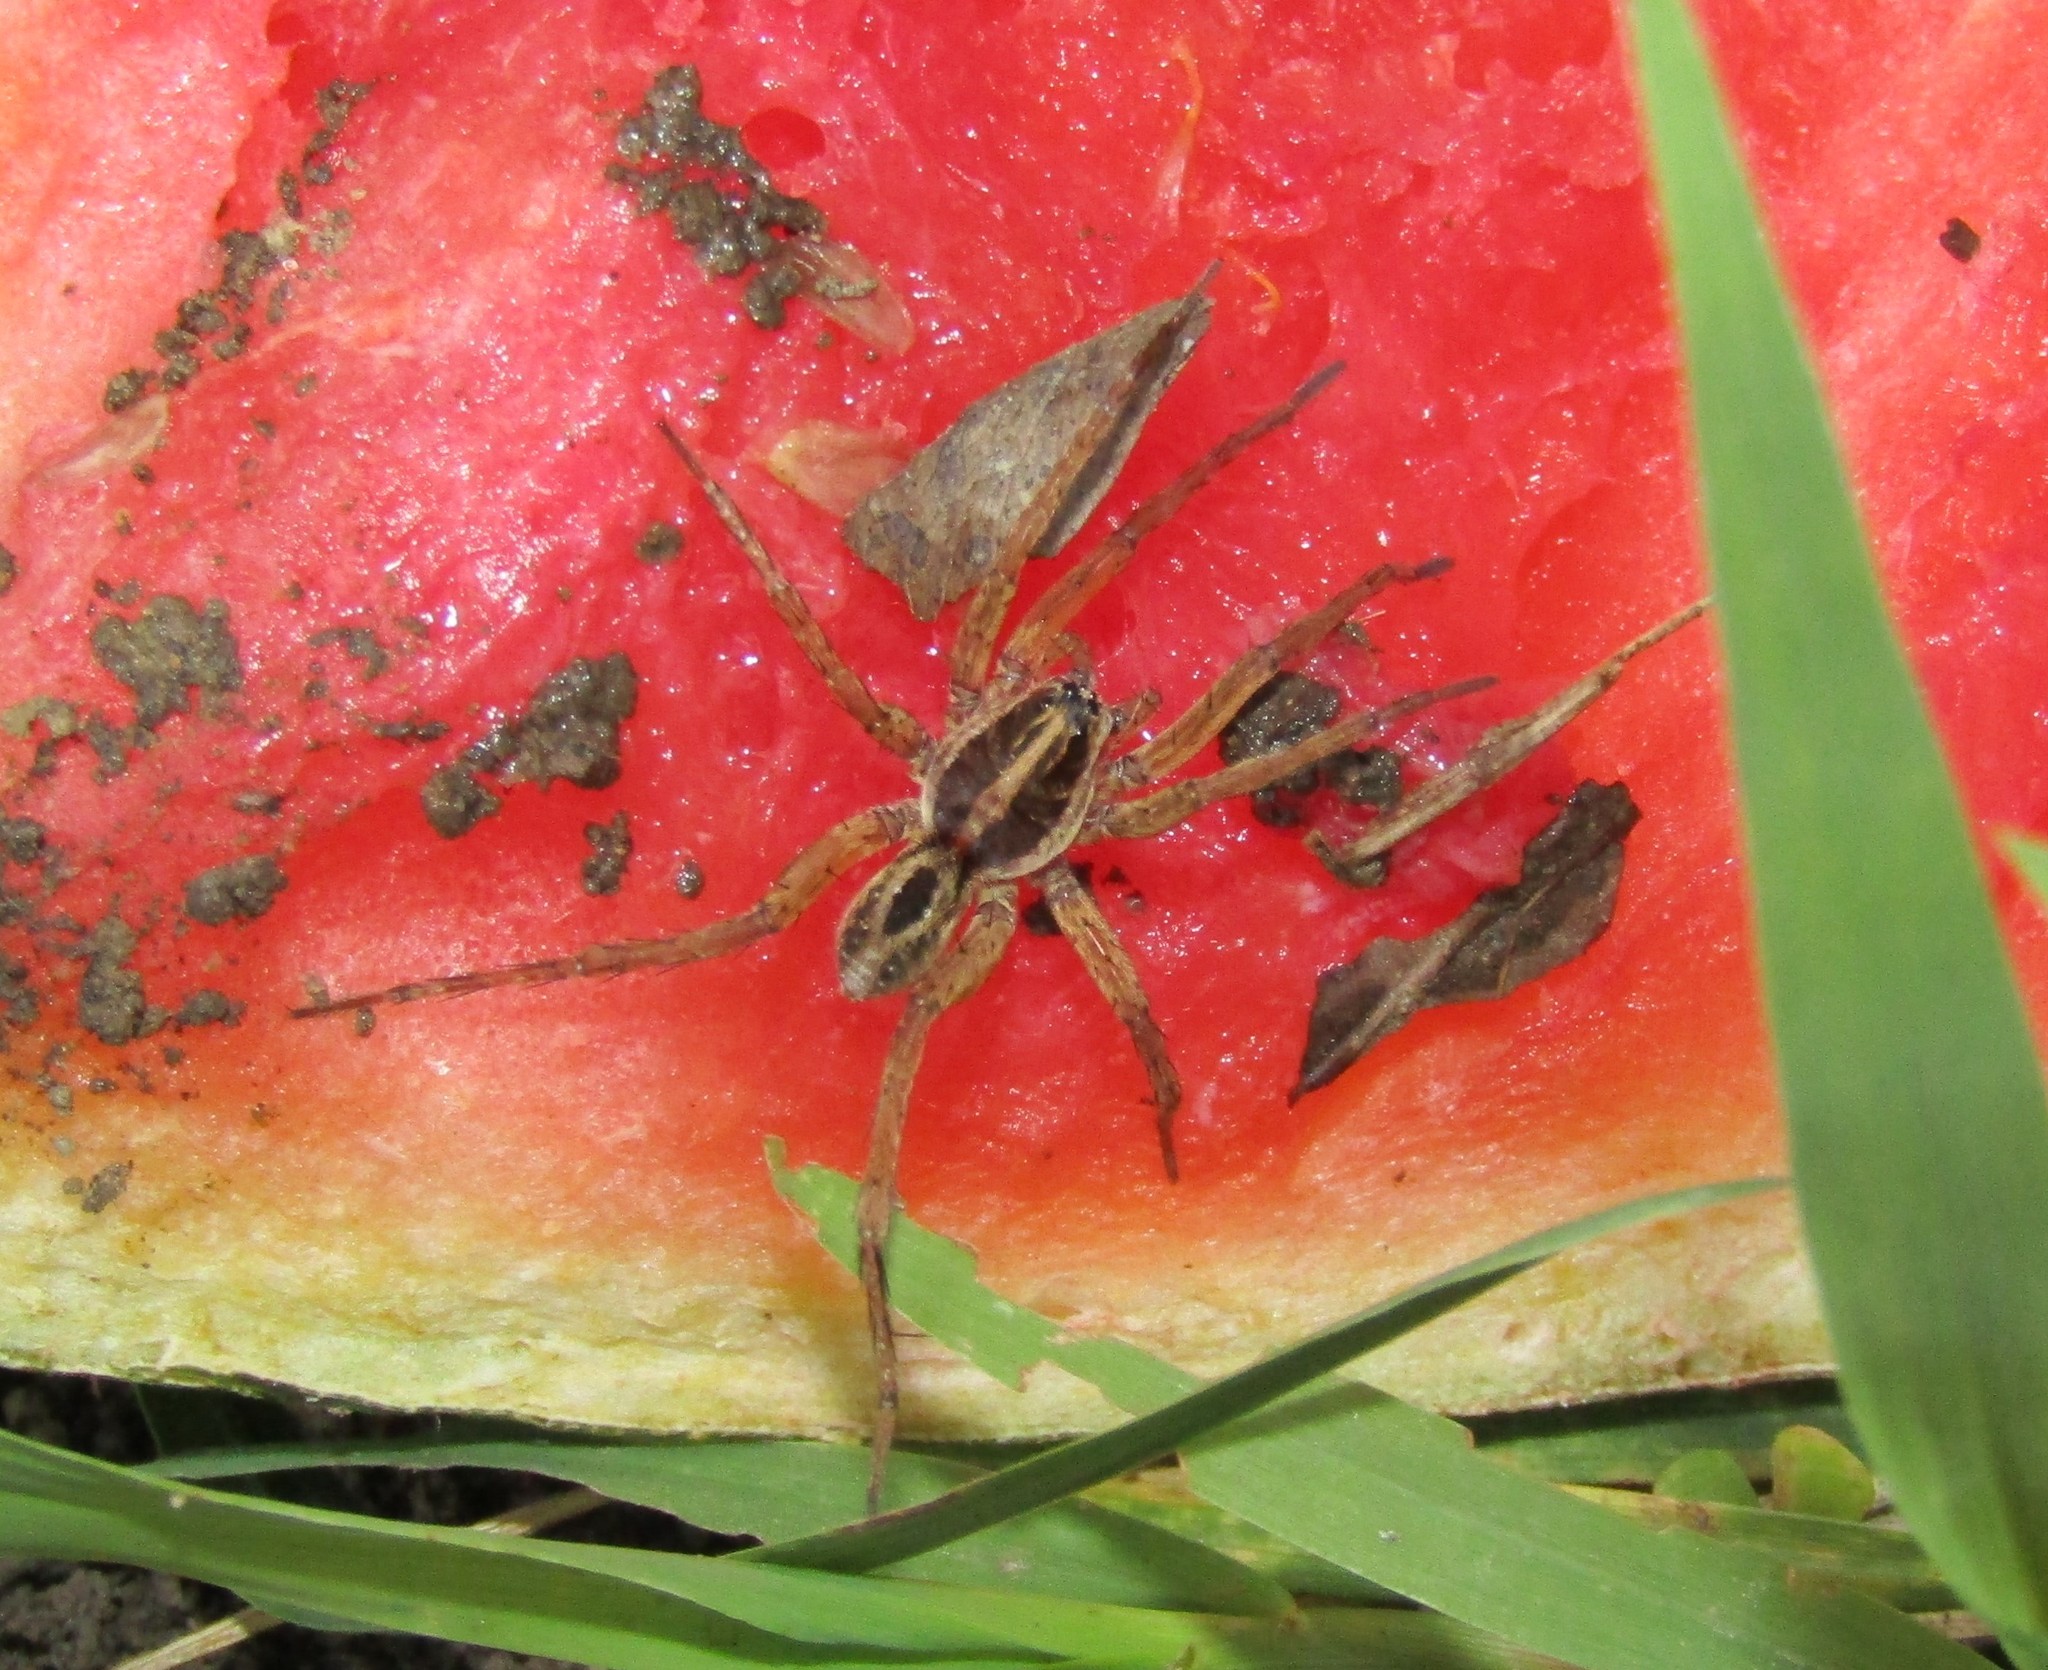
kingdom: Animalia
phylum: Arthropoda
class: Arachnida
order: Araneae
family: Lycosidae
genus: Tigrosa
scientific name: Tigrosa annexa
